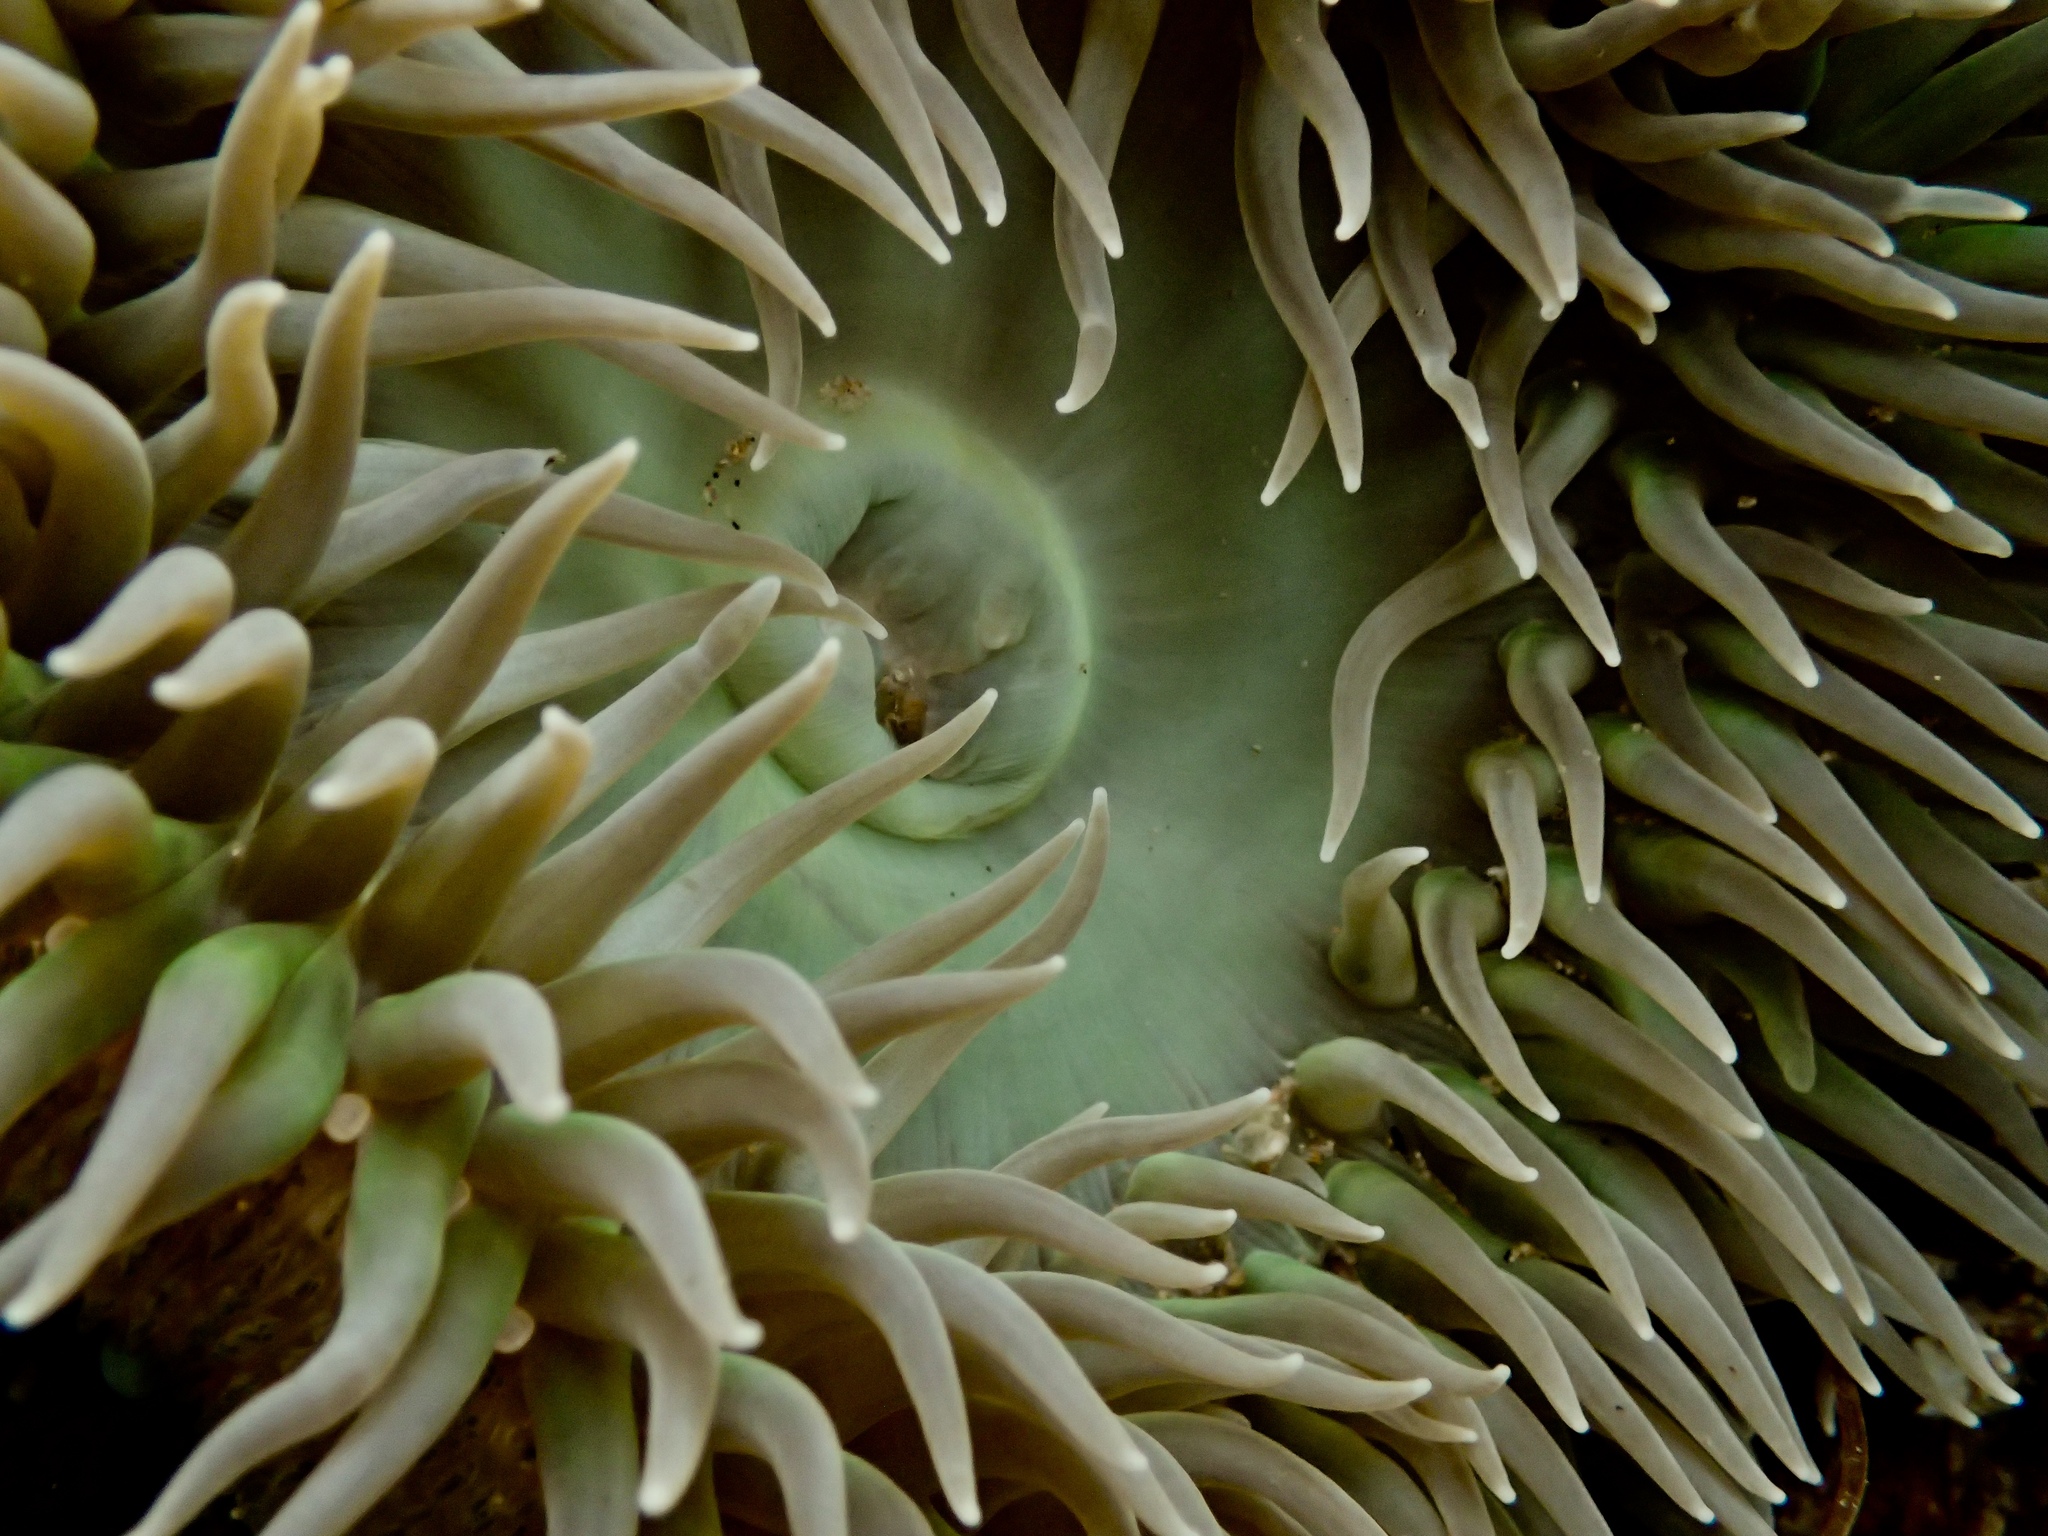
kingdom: Animalia
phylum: Cnidaria
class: Anthozoa
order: Actiniaria
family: Actiniidae
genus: Anthopleura
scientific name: Anthopleura xanthogrammica
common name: Giant green anemone
